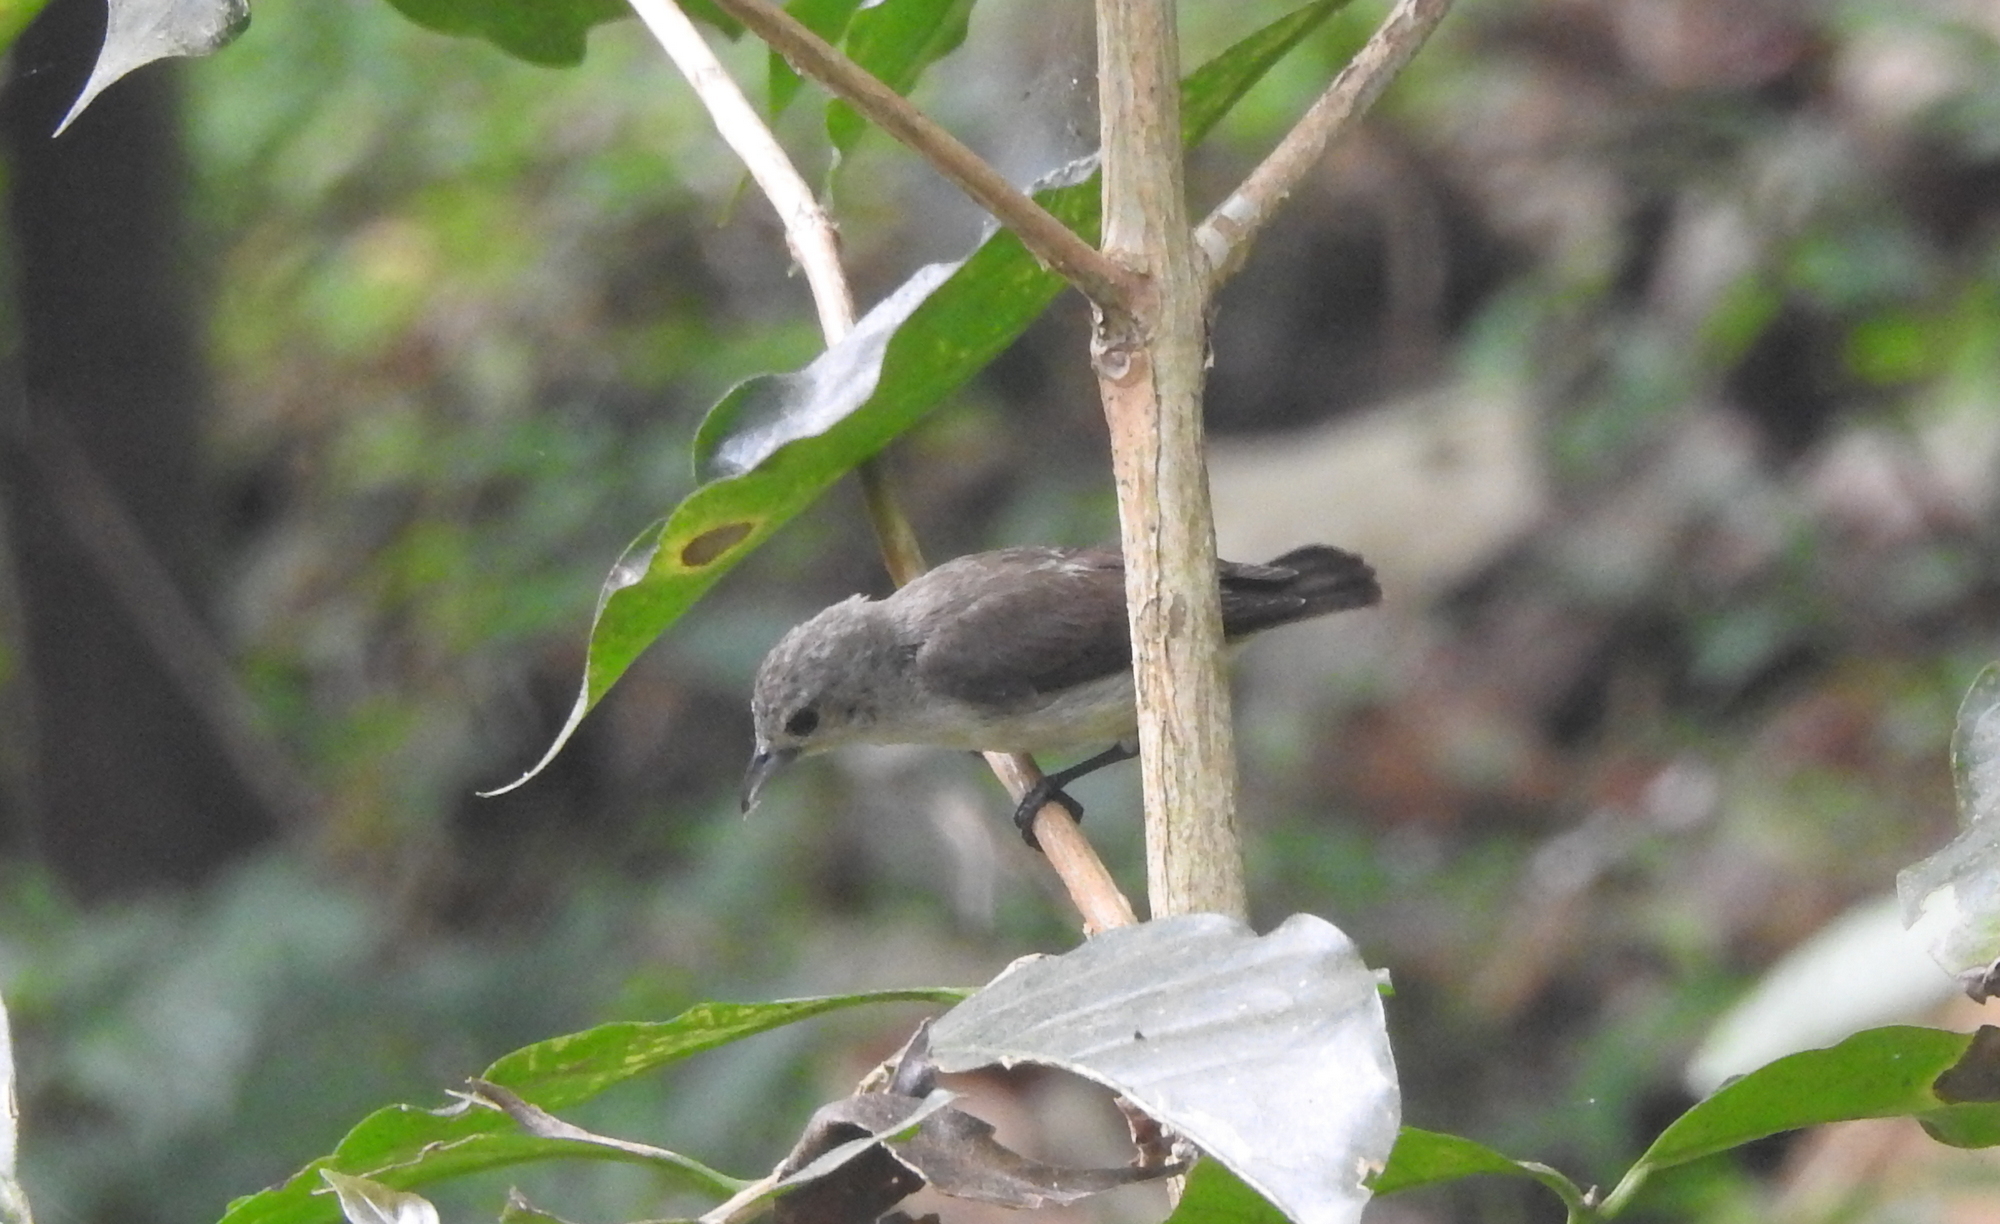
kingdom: Animalia
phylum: Chordata
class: Aves
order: Passeriformes
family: Dicaeidae
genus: Dicaeum
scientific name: Dicaeum concolor
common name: Nilgiri flowerpecker
